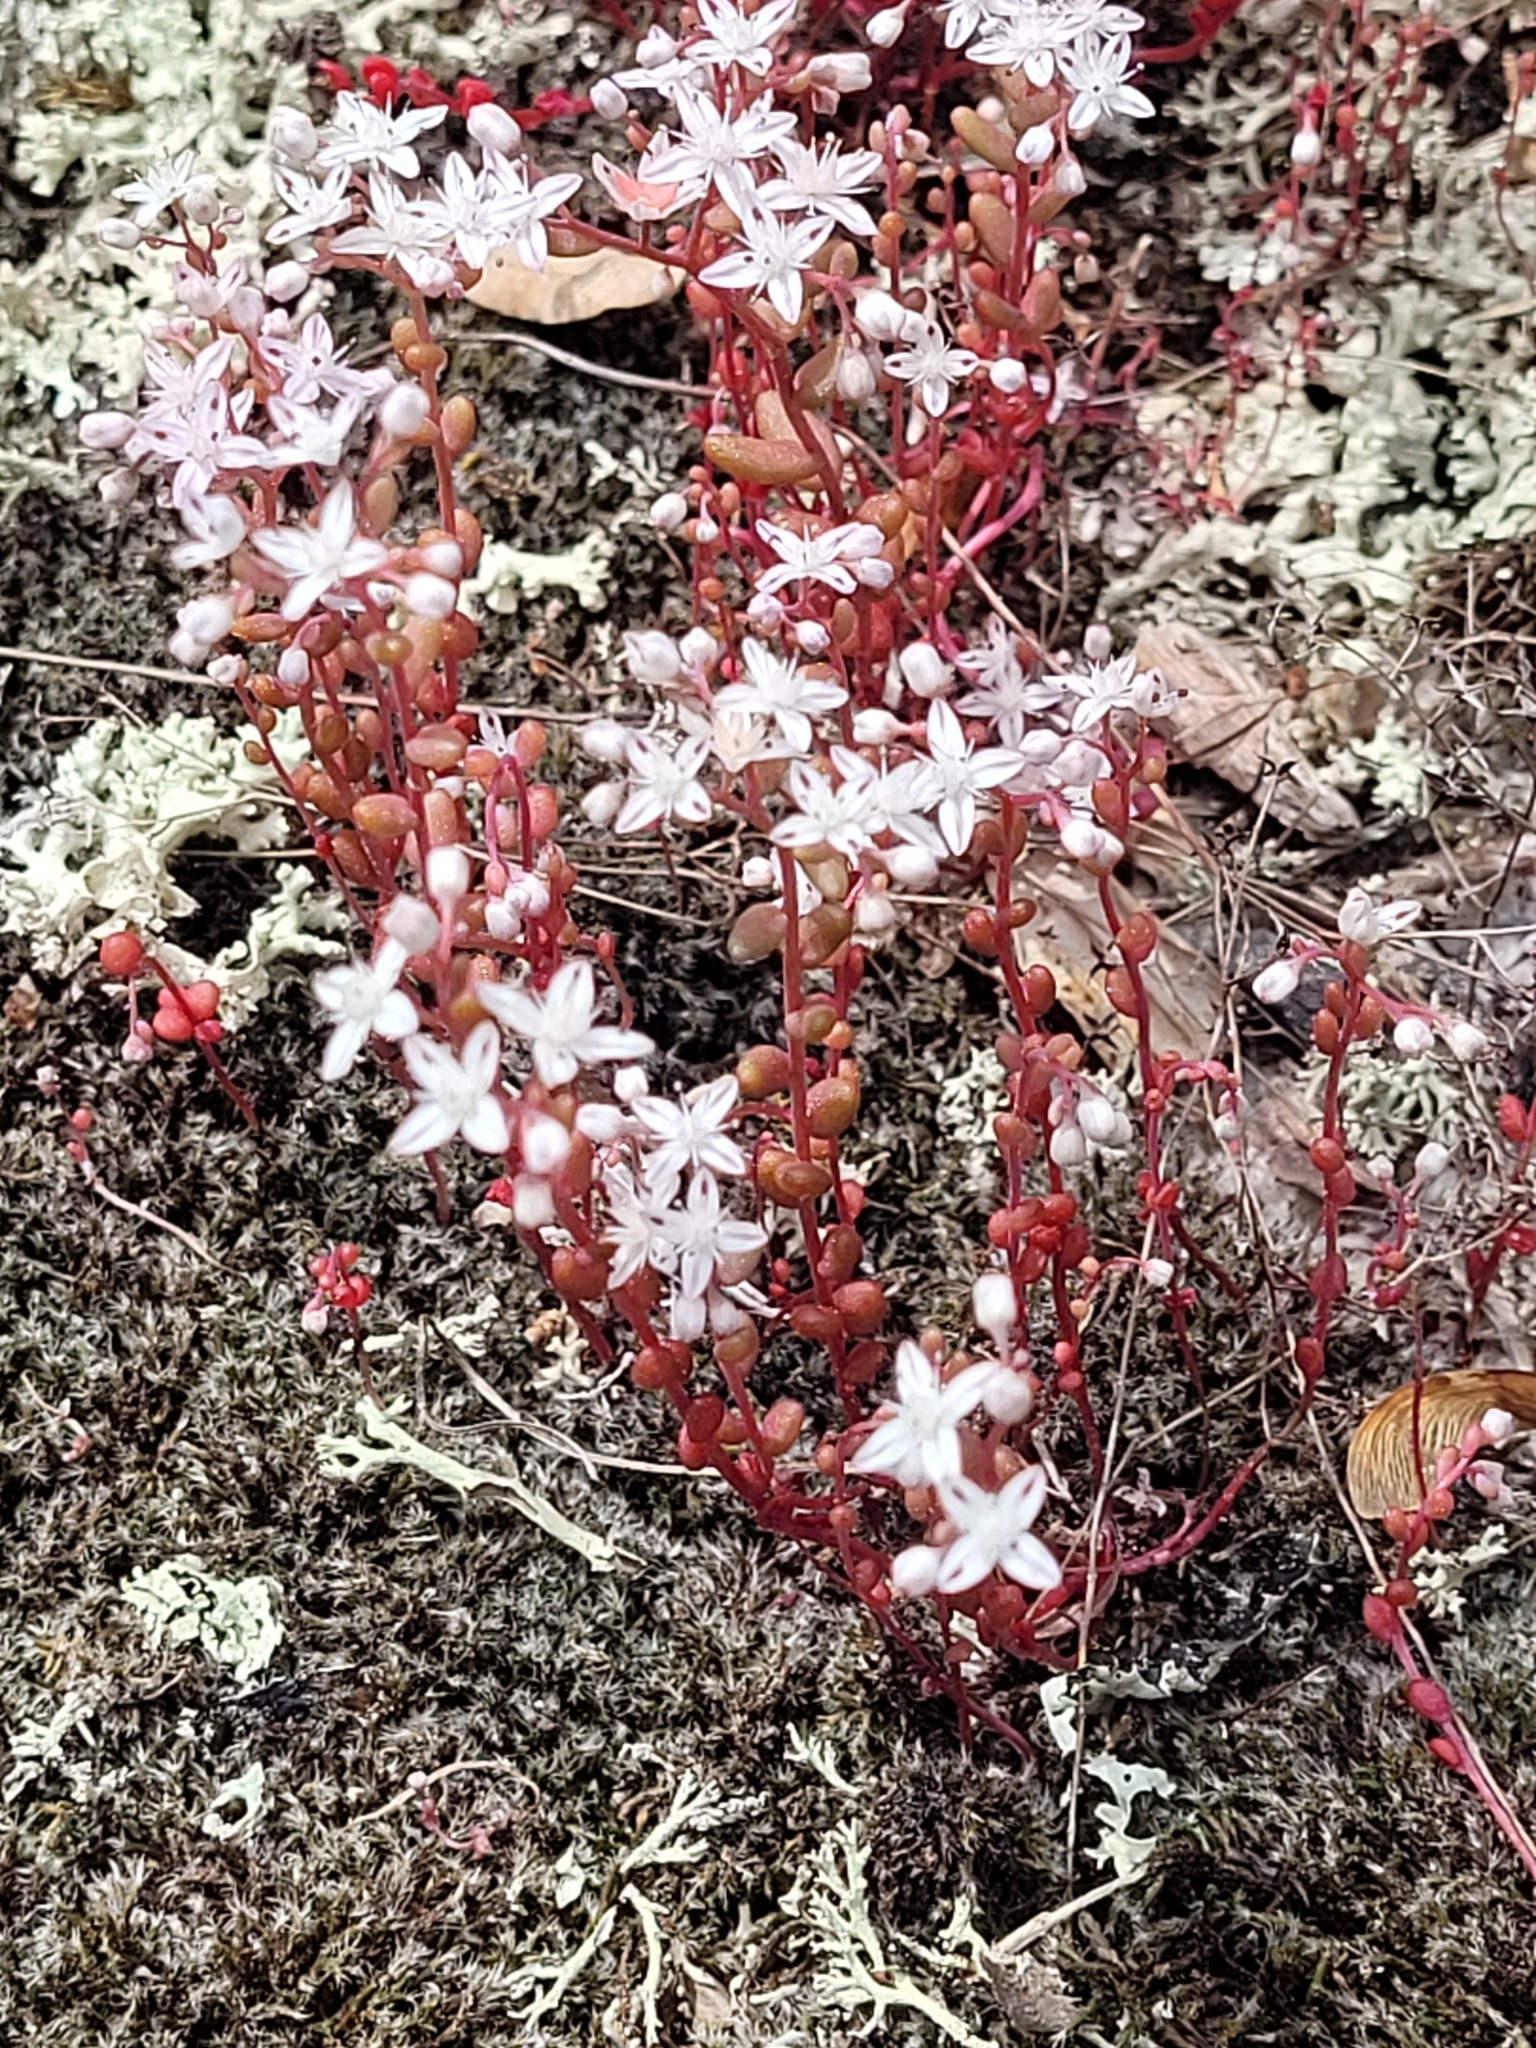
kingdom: Plantae
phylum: Tracheophyta
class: Magnoliopsida
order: Saxifragales
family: Crassulaceae
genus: Sedum
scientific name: Sedum smallii
